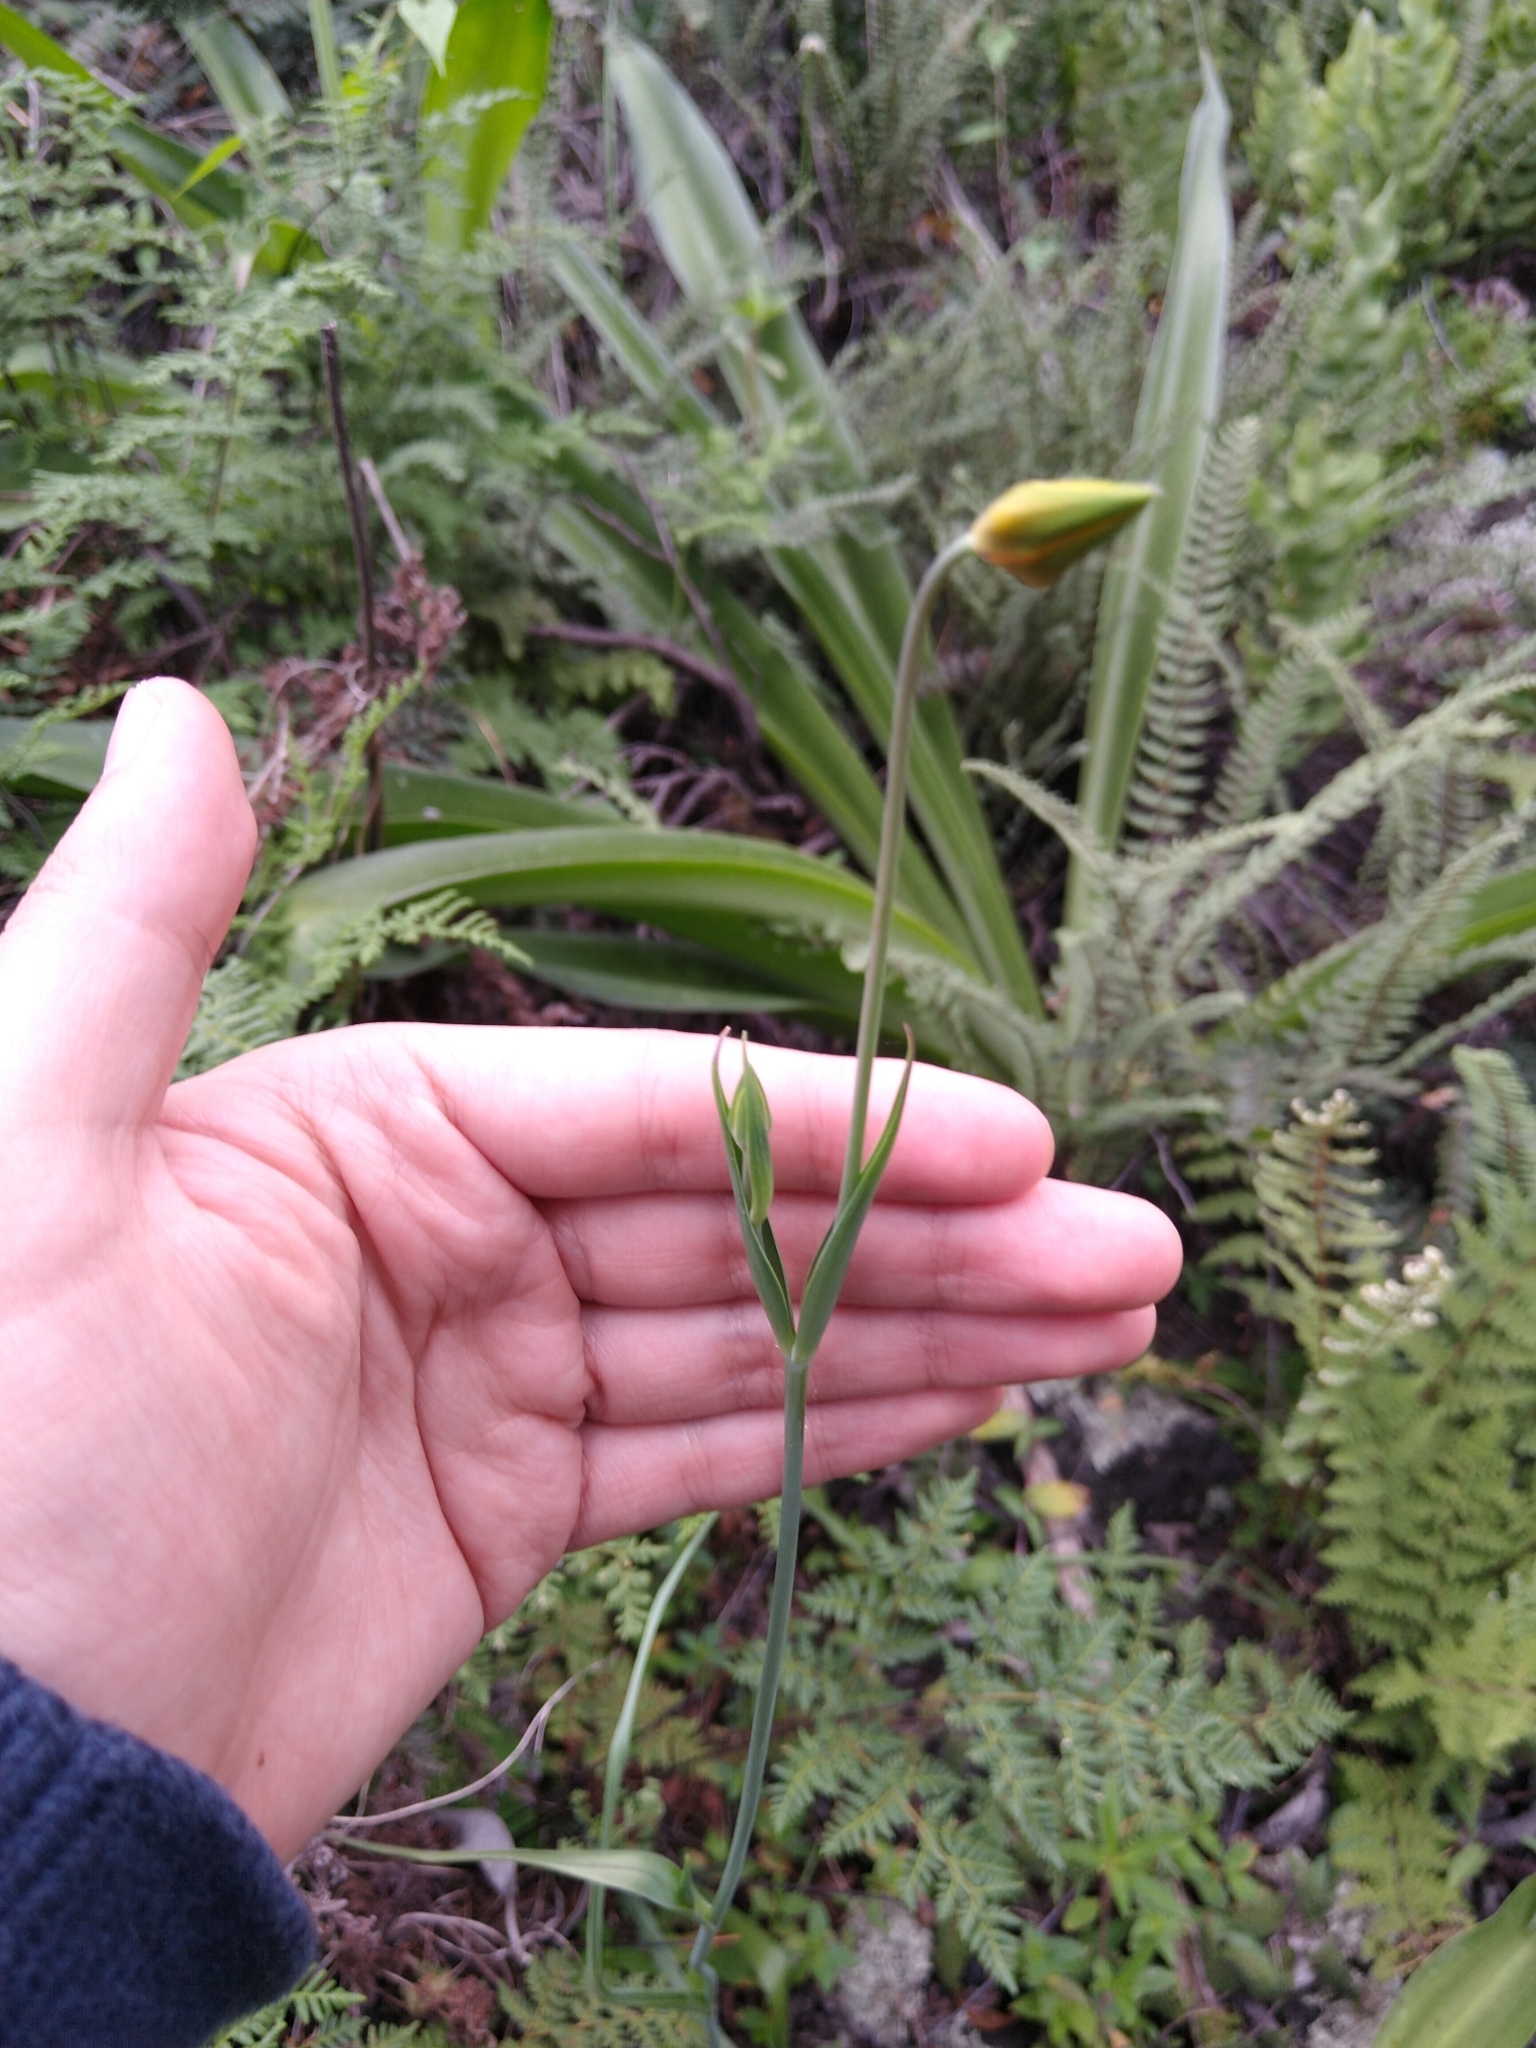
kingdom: Plantae
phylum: Tracheophyta
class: Liliopsida
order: Liliales
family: Liliaceae
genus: Calochortus
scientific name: Calochortus barbatus
